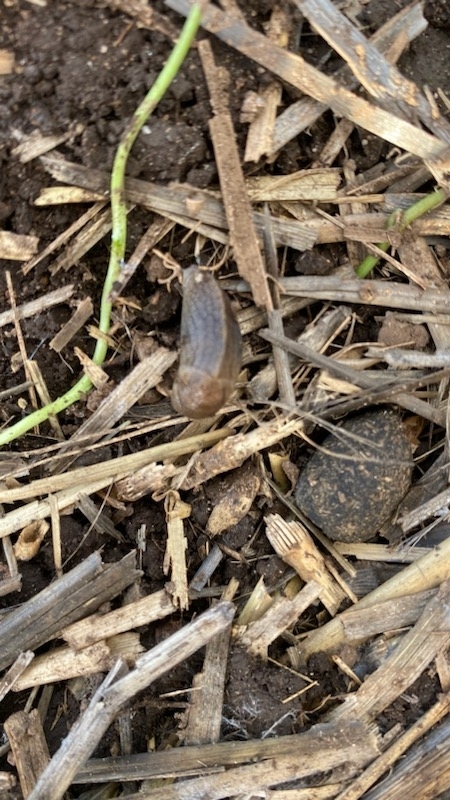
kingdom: Animalia
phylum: Mollusca
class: Gastropoda
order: Stylommatophora
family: Milacidae
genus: Milax
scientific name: Milax gagates
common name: Greenhouse slug
